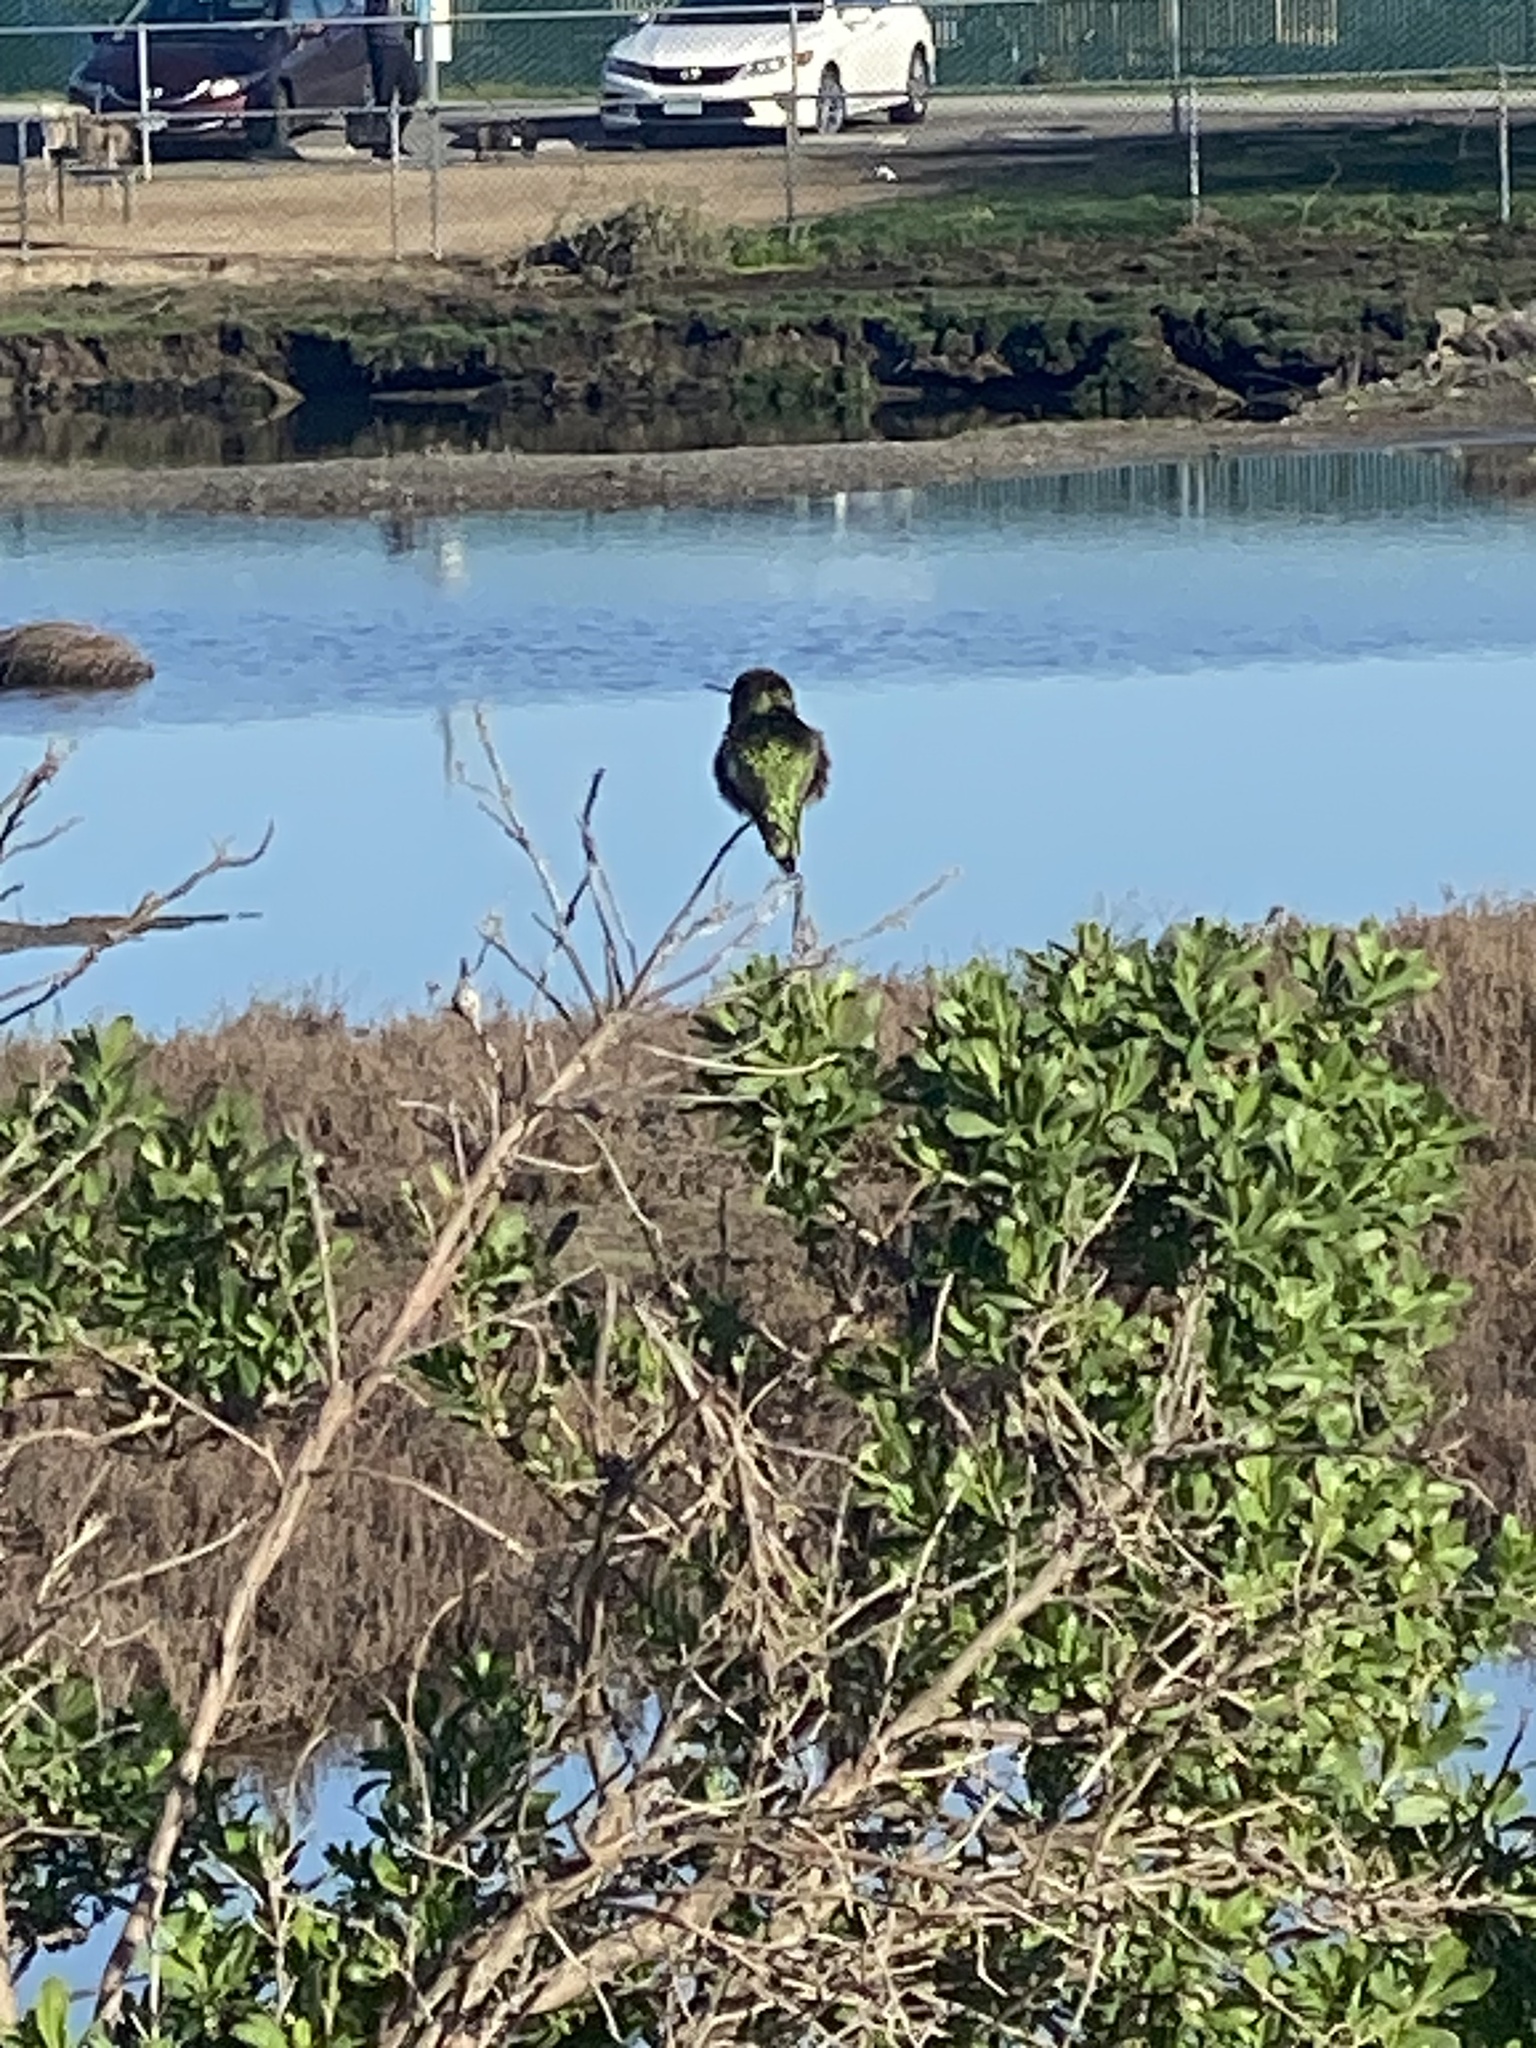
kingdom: Animalia
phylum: Chordata
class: Aves
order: Apodiformes
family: Trochilidae
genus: Calypte
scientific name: Calypte anna
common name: Anna's hummingbird
